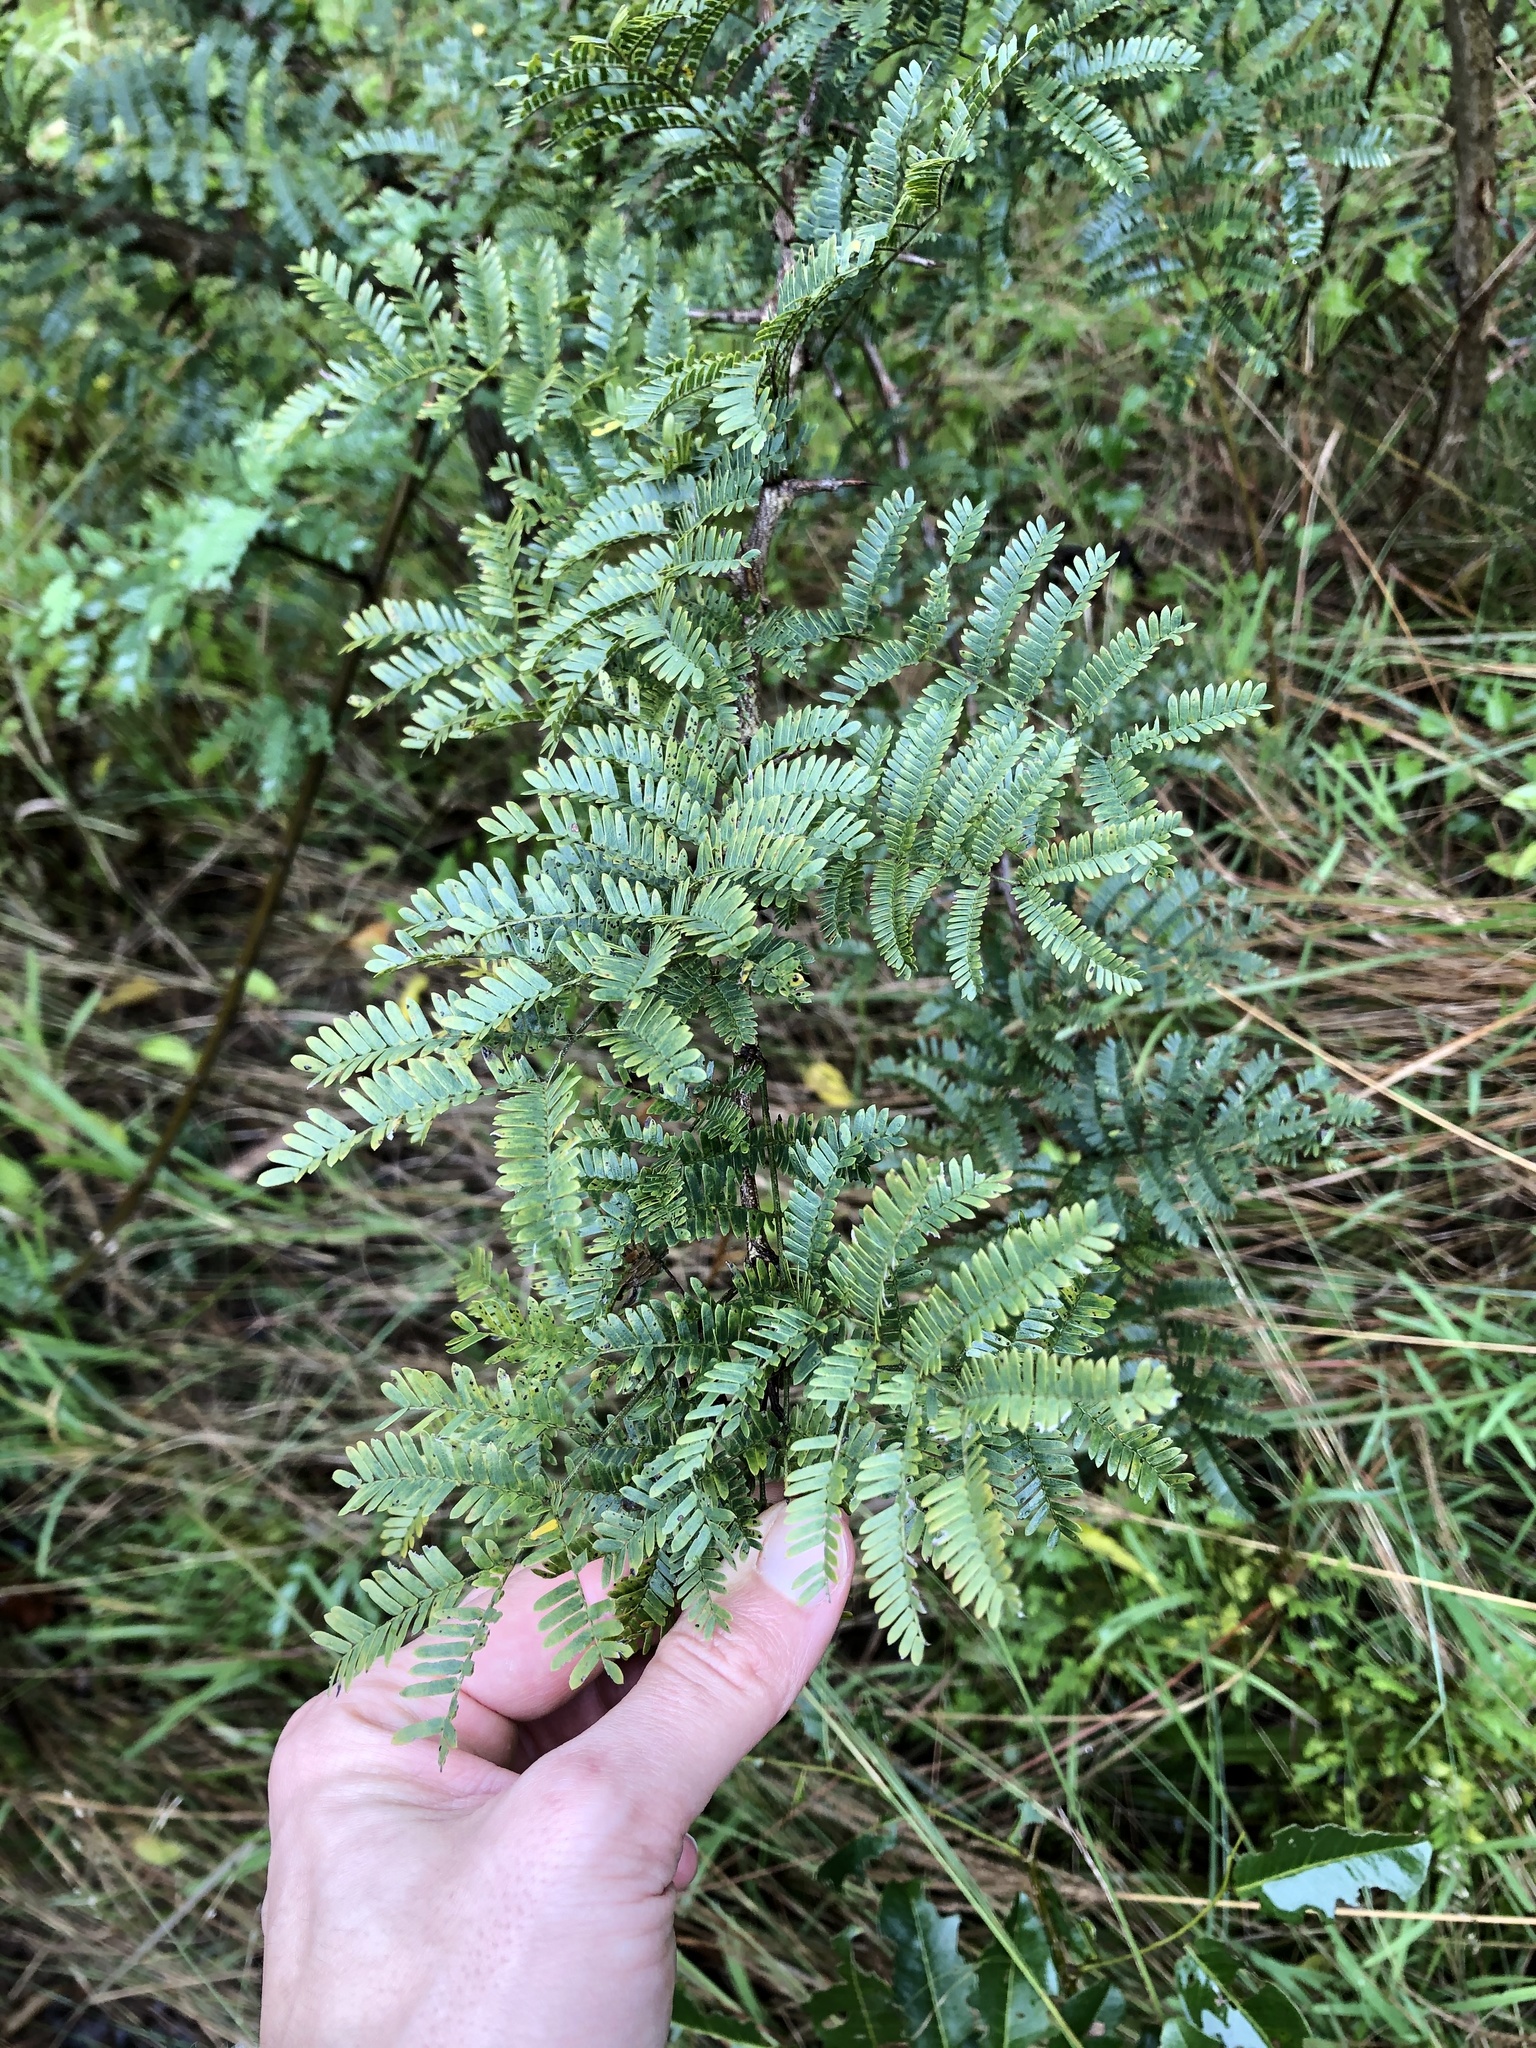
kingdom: Plantae
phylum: Tracheophyta
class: Magnoliopsida
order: Fabales
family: Fabaceae
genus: Dichrostachys
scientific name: Dichrostachys cinerea
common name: Sicklebush
